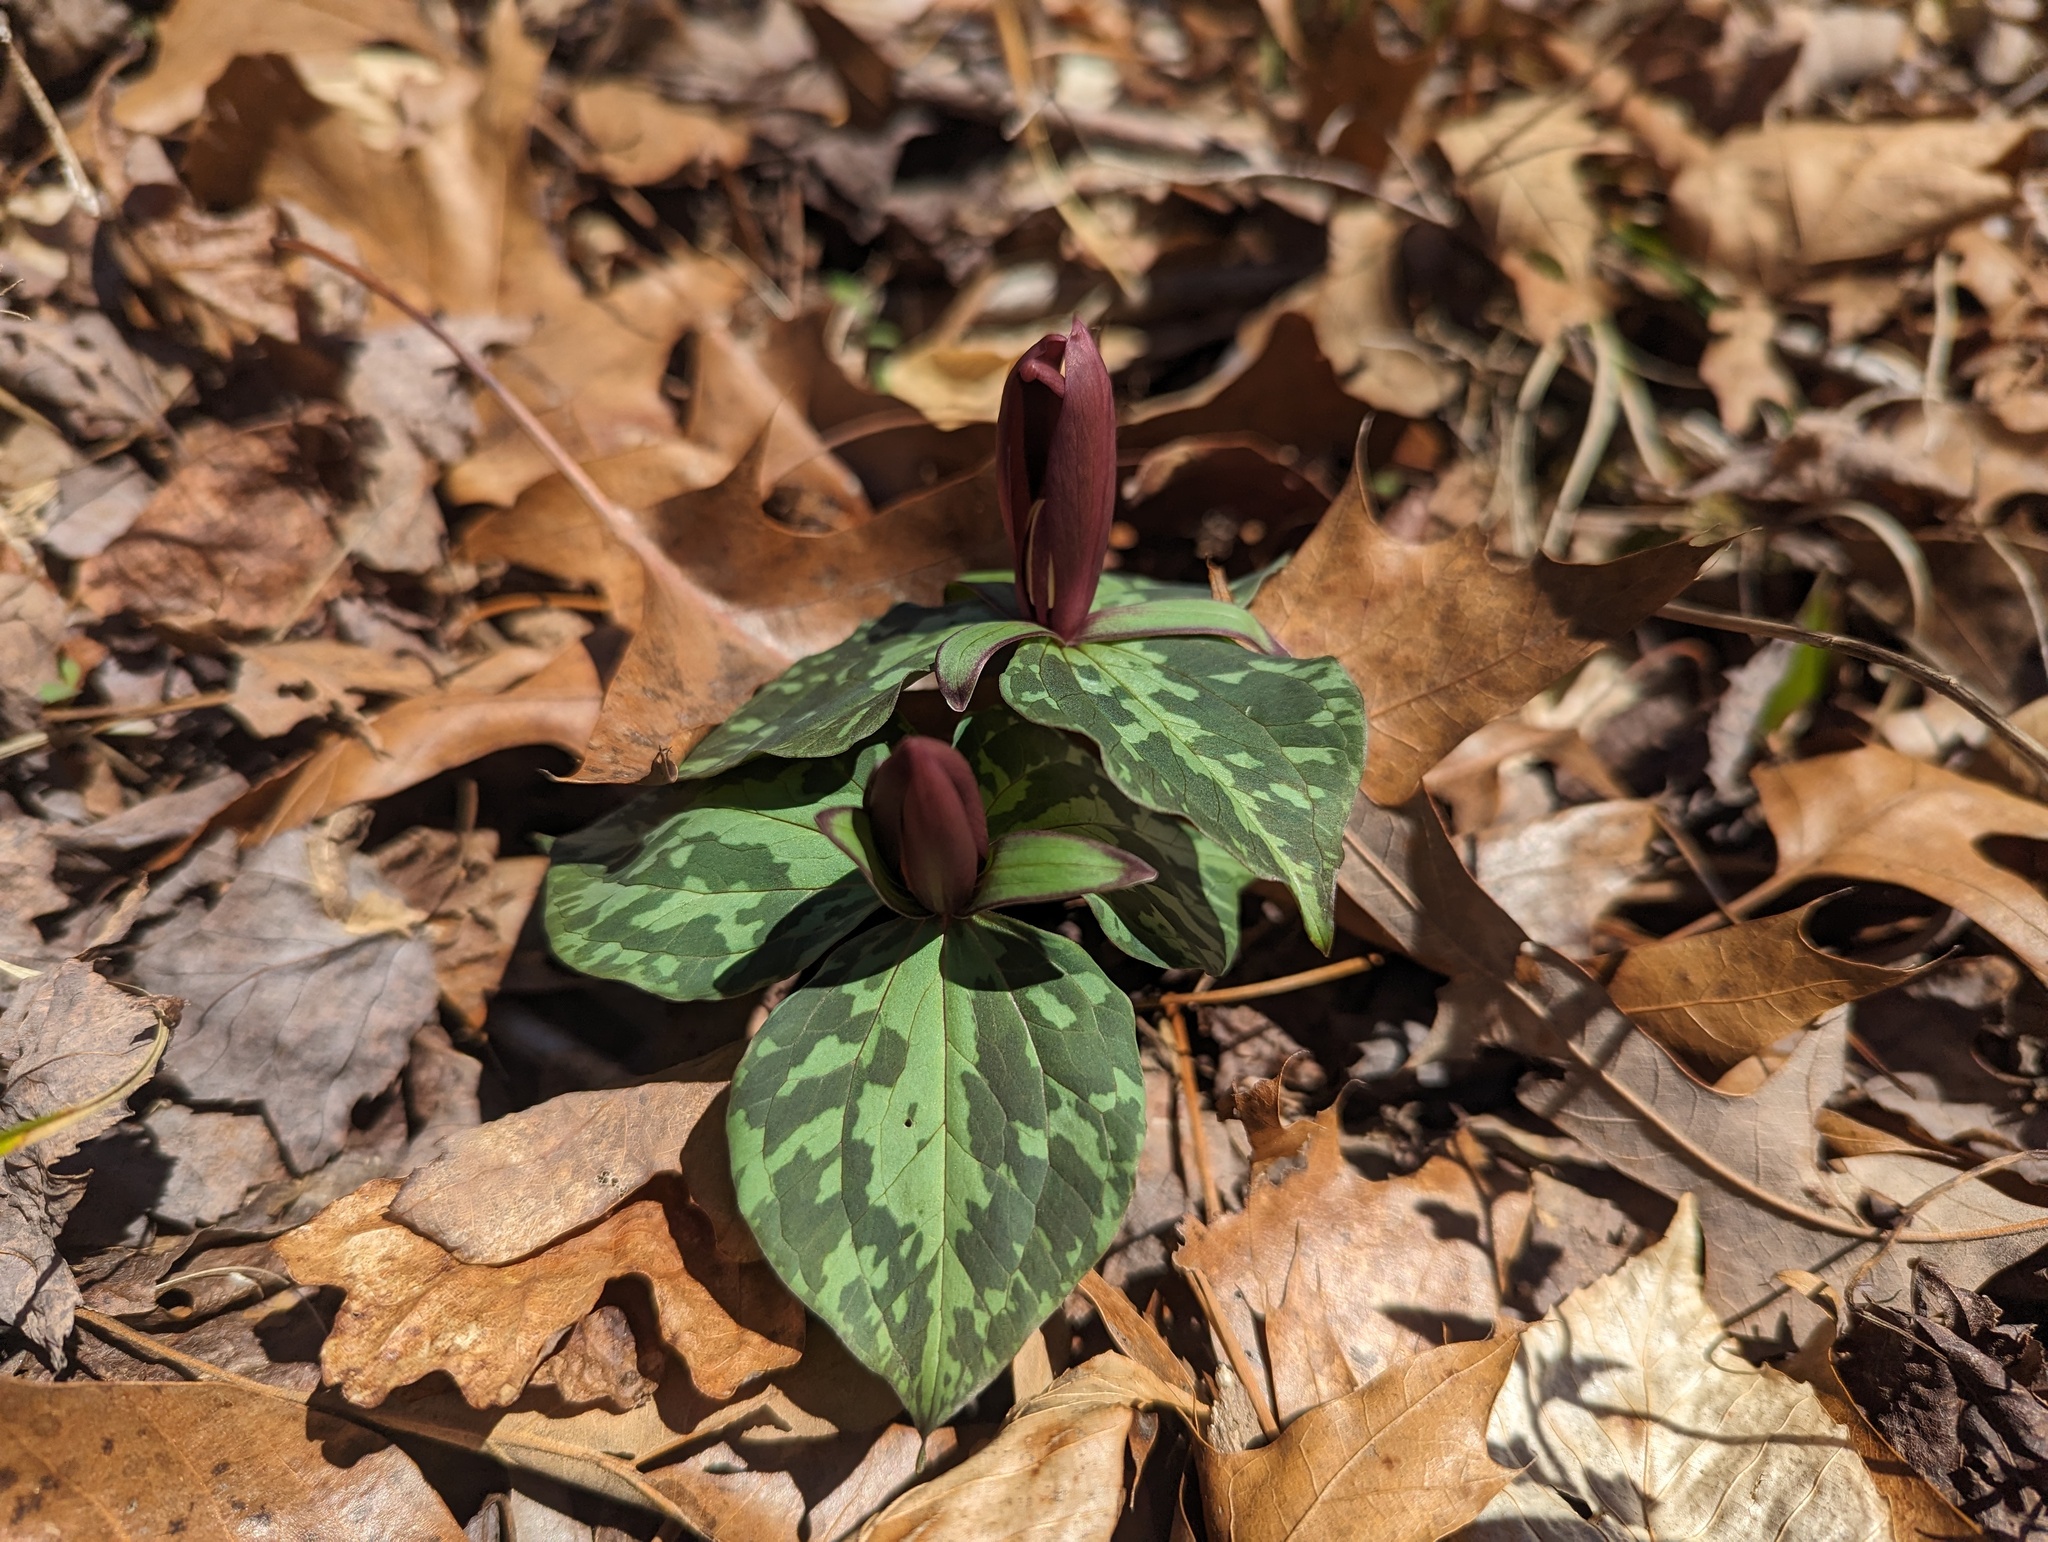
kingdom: Plantae
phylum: Tracheophyta
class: Liliopsida
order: Liliales
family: Melanthiaceae
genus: Trillium
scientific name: Trillium cuneatum
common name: Cuneate trillium
